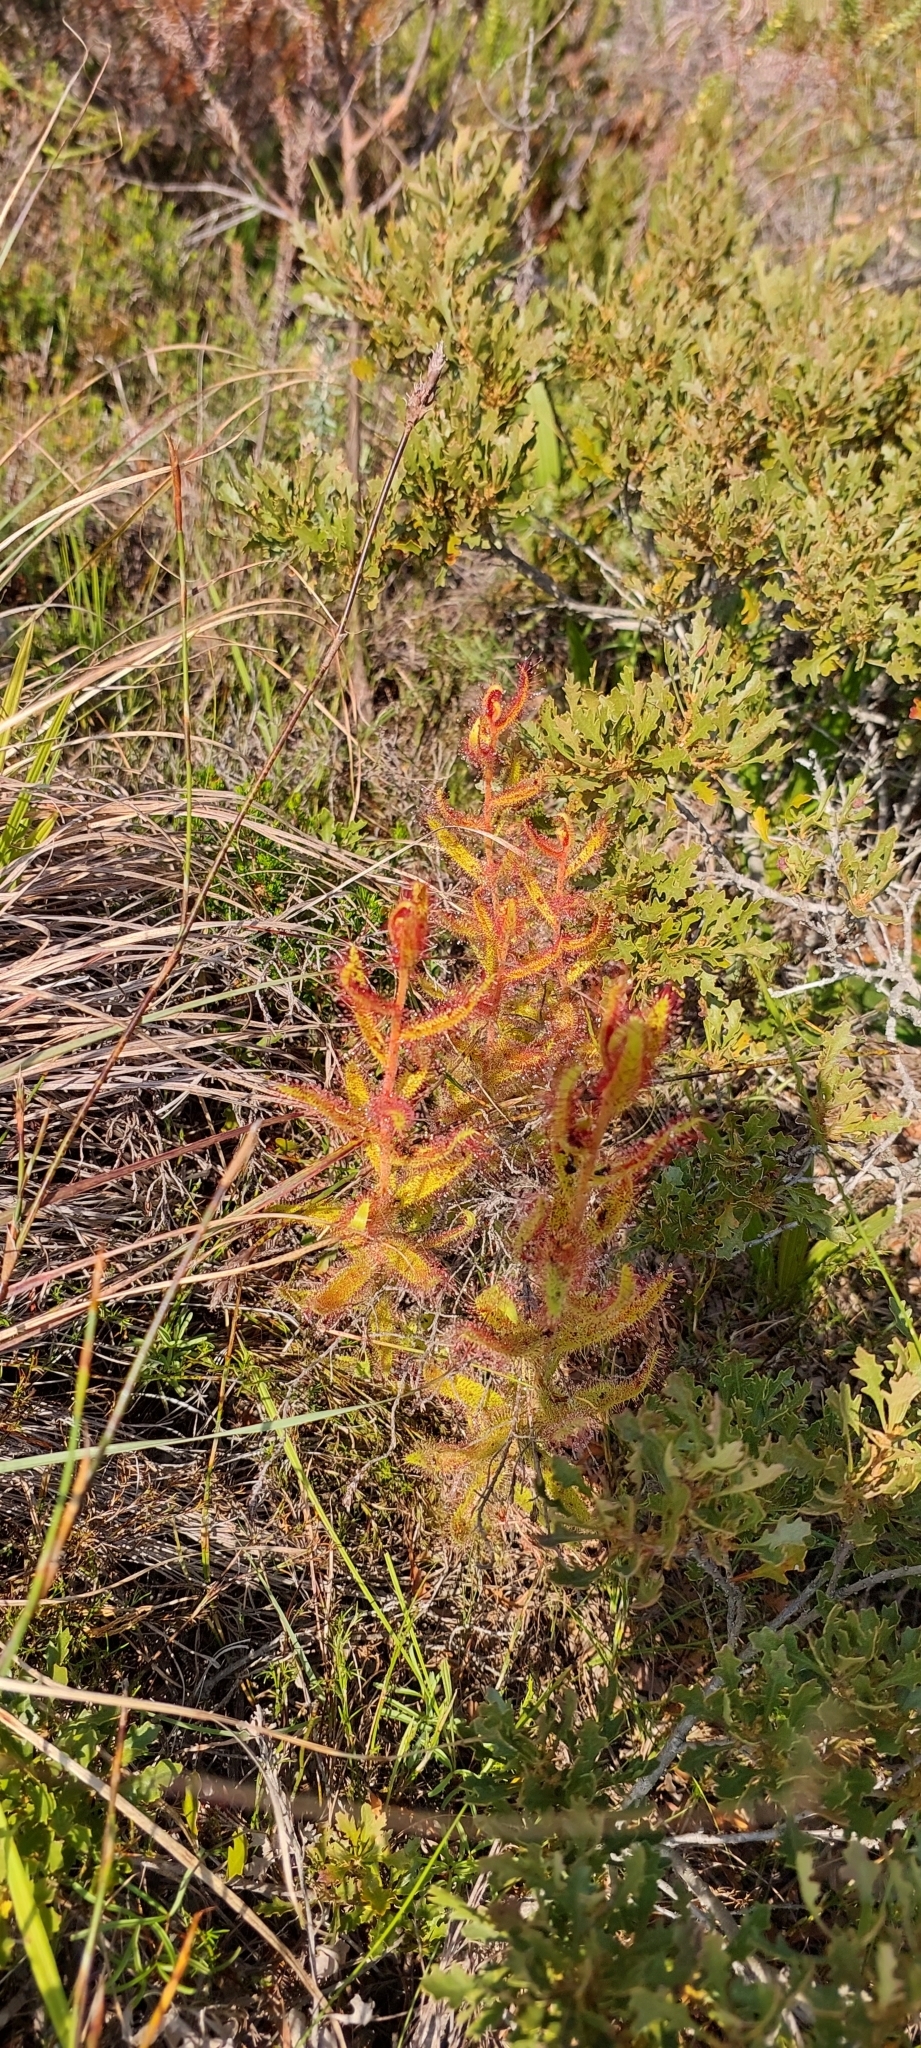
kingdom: Plantae
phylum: Tracheophyta
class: Magnoliopsida
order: Caryophyllales
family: Droseraceae
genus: Drosera
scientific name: Drosera cistiflora
